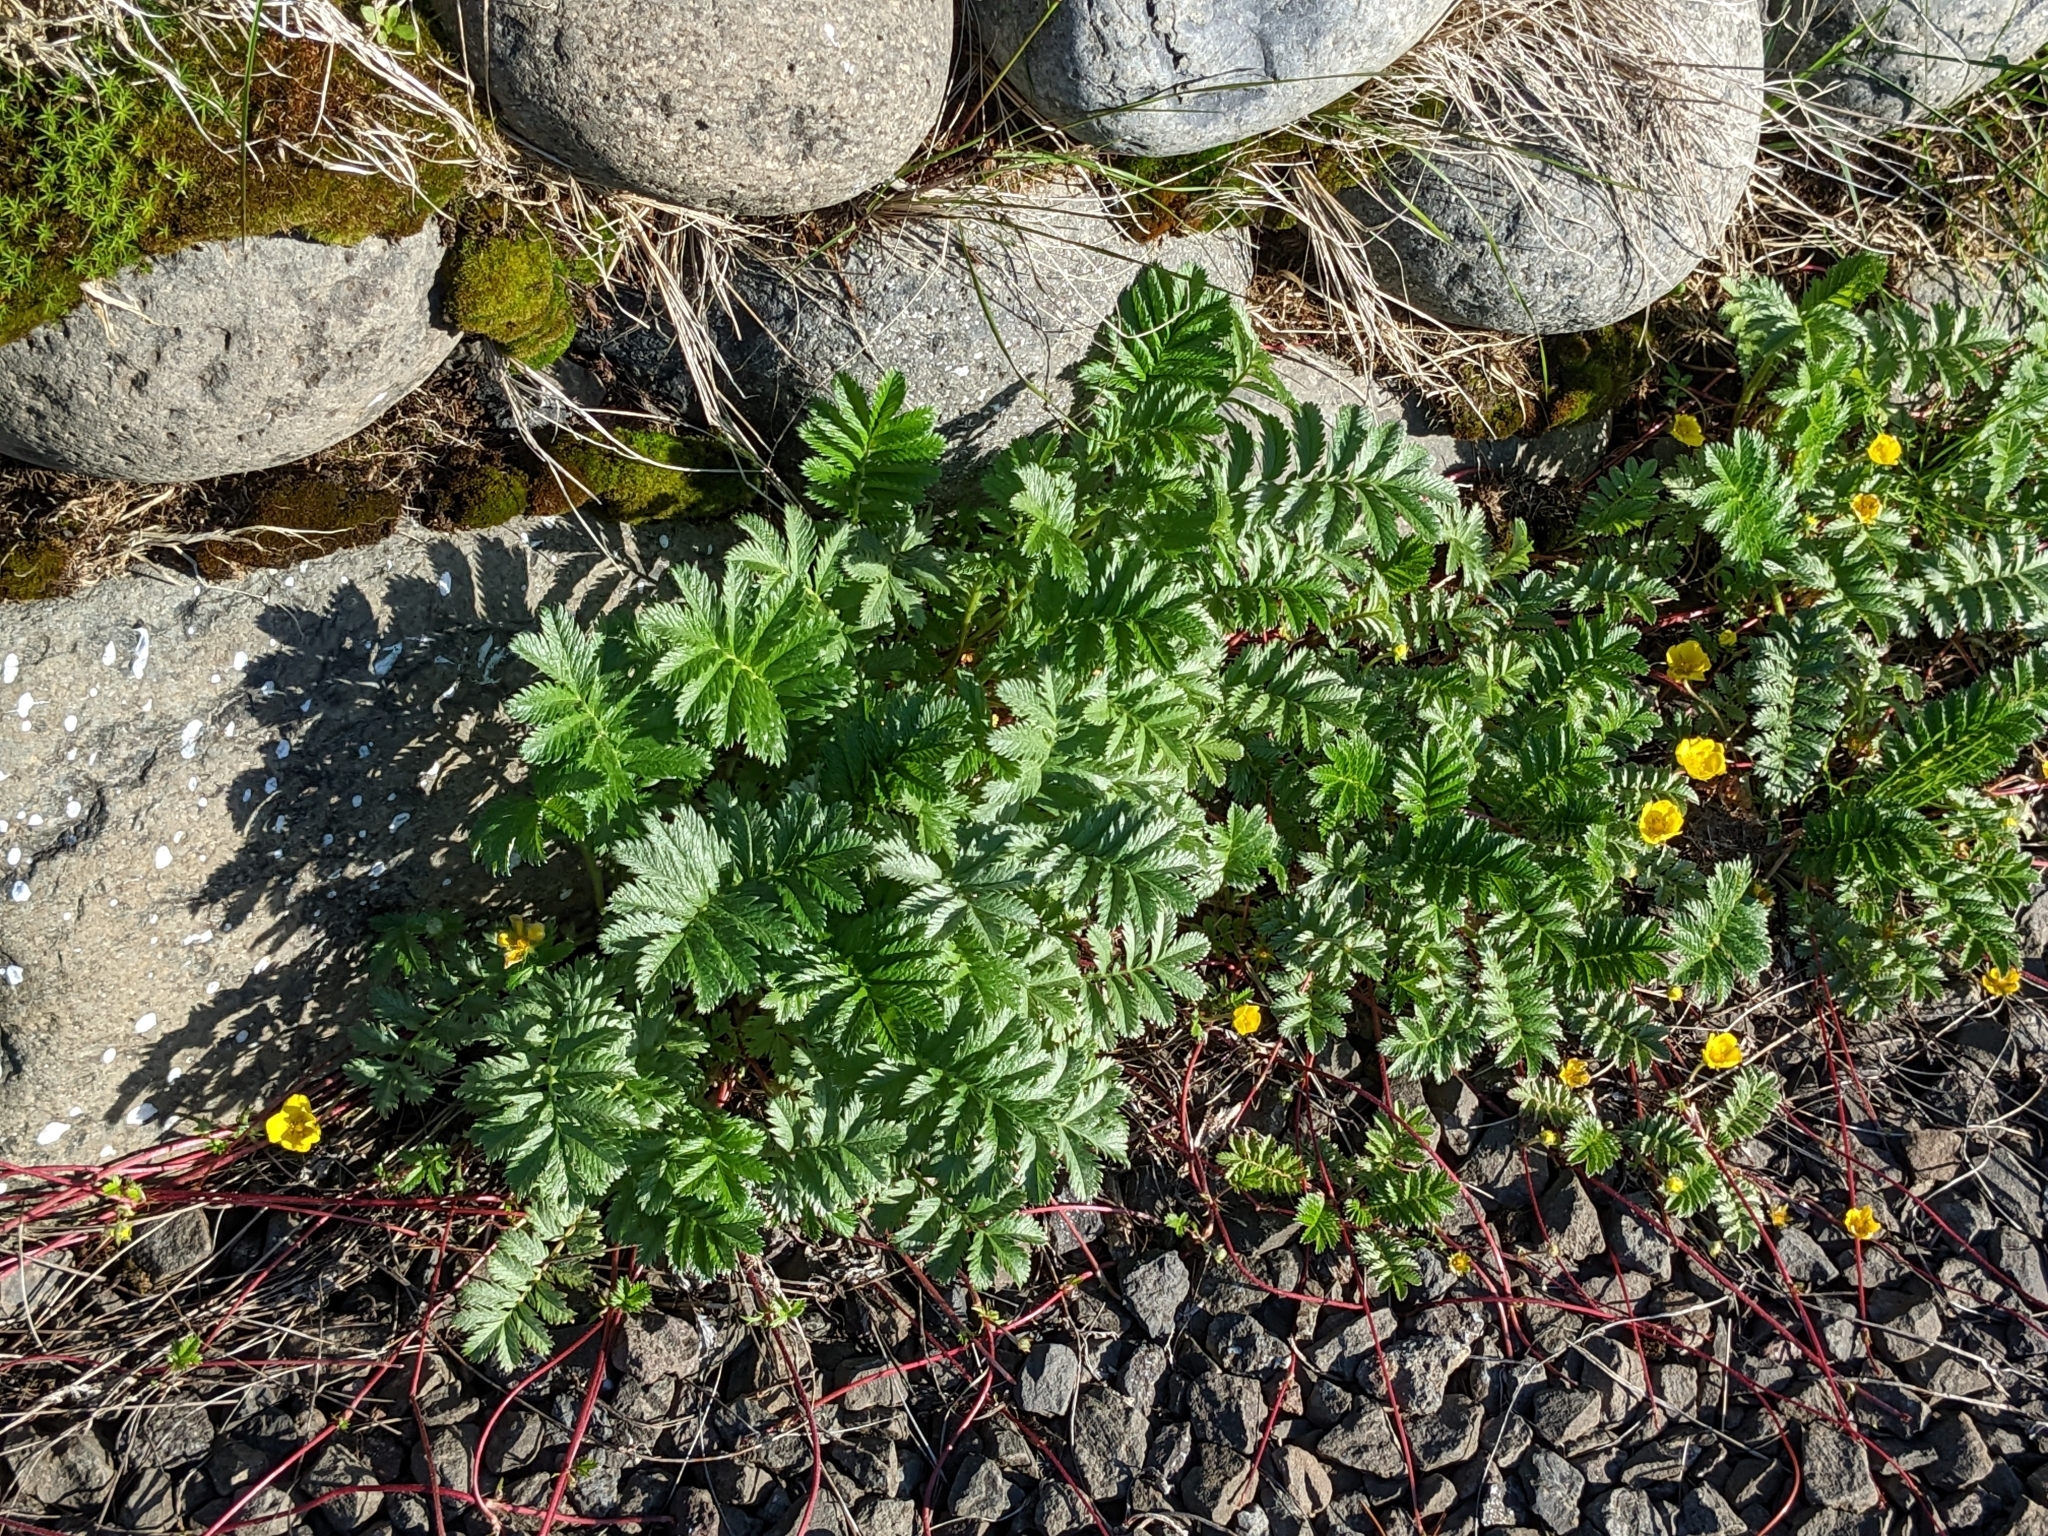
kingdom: Plantae
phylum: Tracheophyta
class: Magnoliopsida
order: Rosales
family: Rosaceae
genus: Argentina
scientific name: Argentina anserina
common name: Common silverweed
